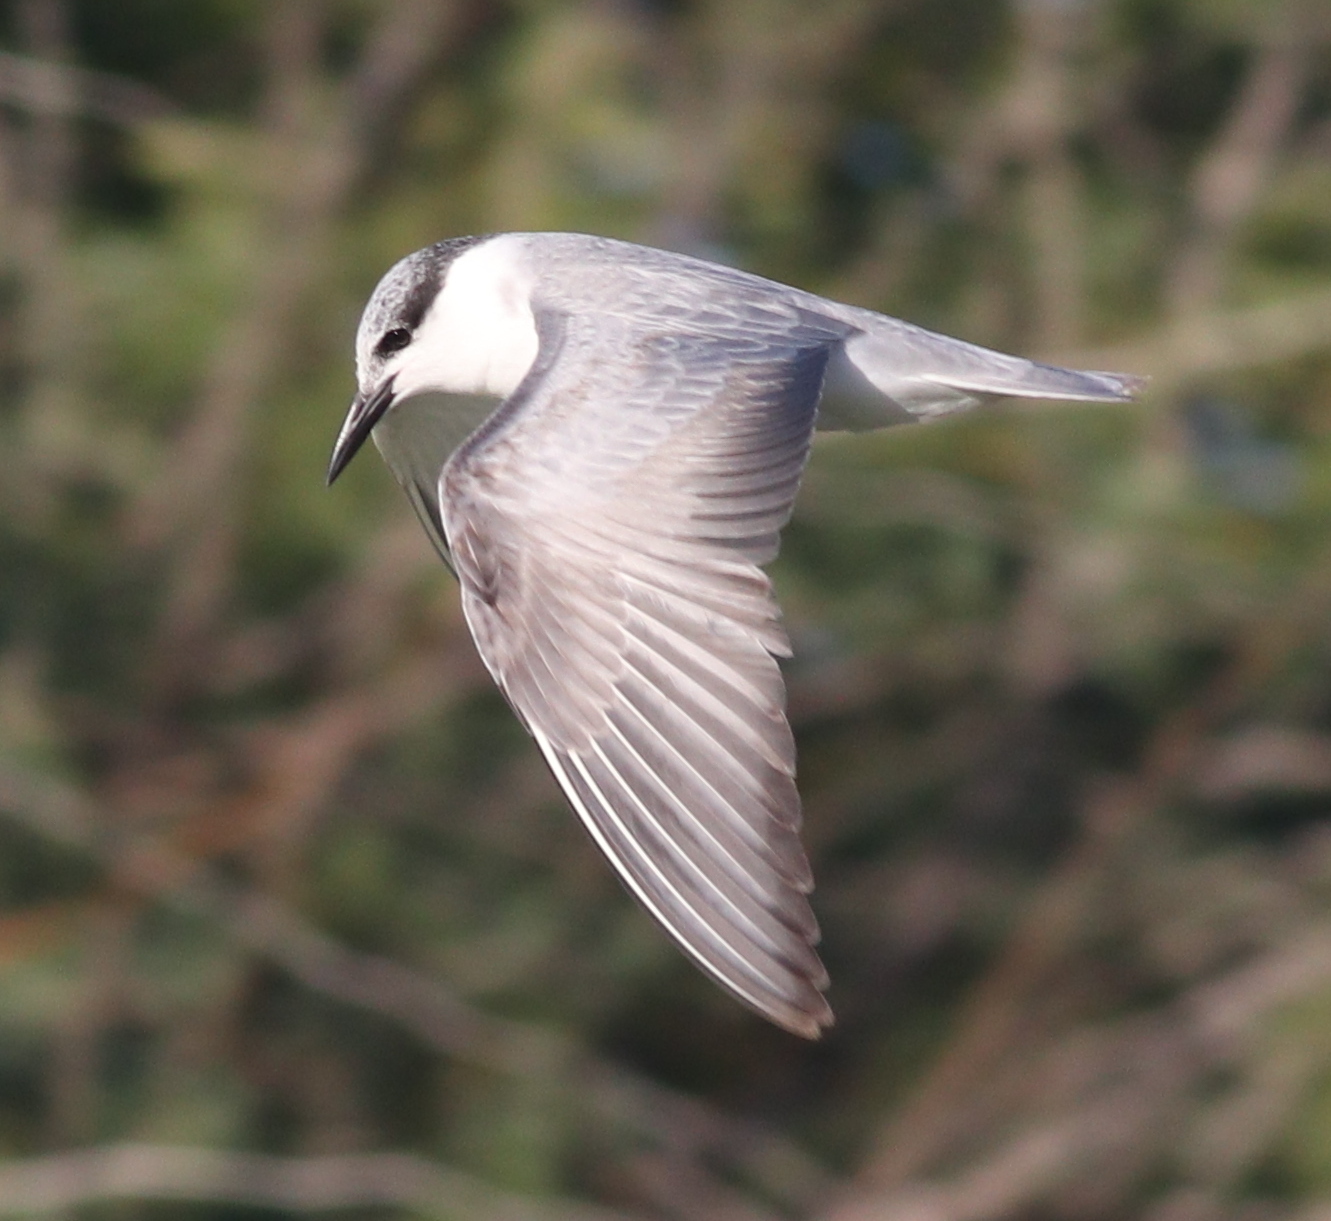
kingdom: Animalia
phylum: Chordata
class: Aves
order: Charadriiformes
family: Laridae
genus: Chlidonias
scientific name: Chlidonias hybrida
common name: Whiskered tern
